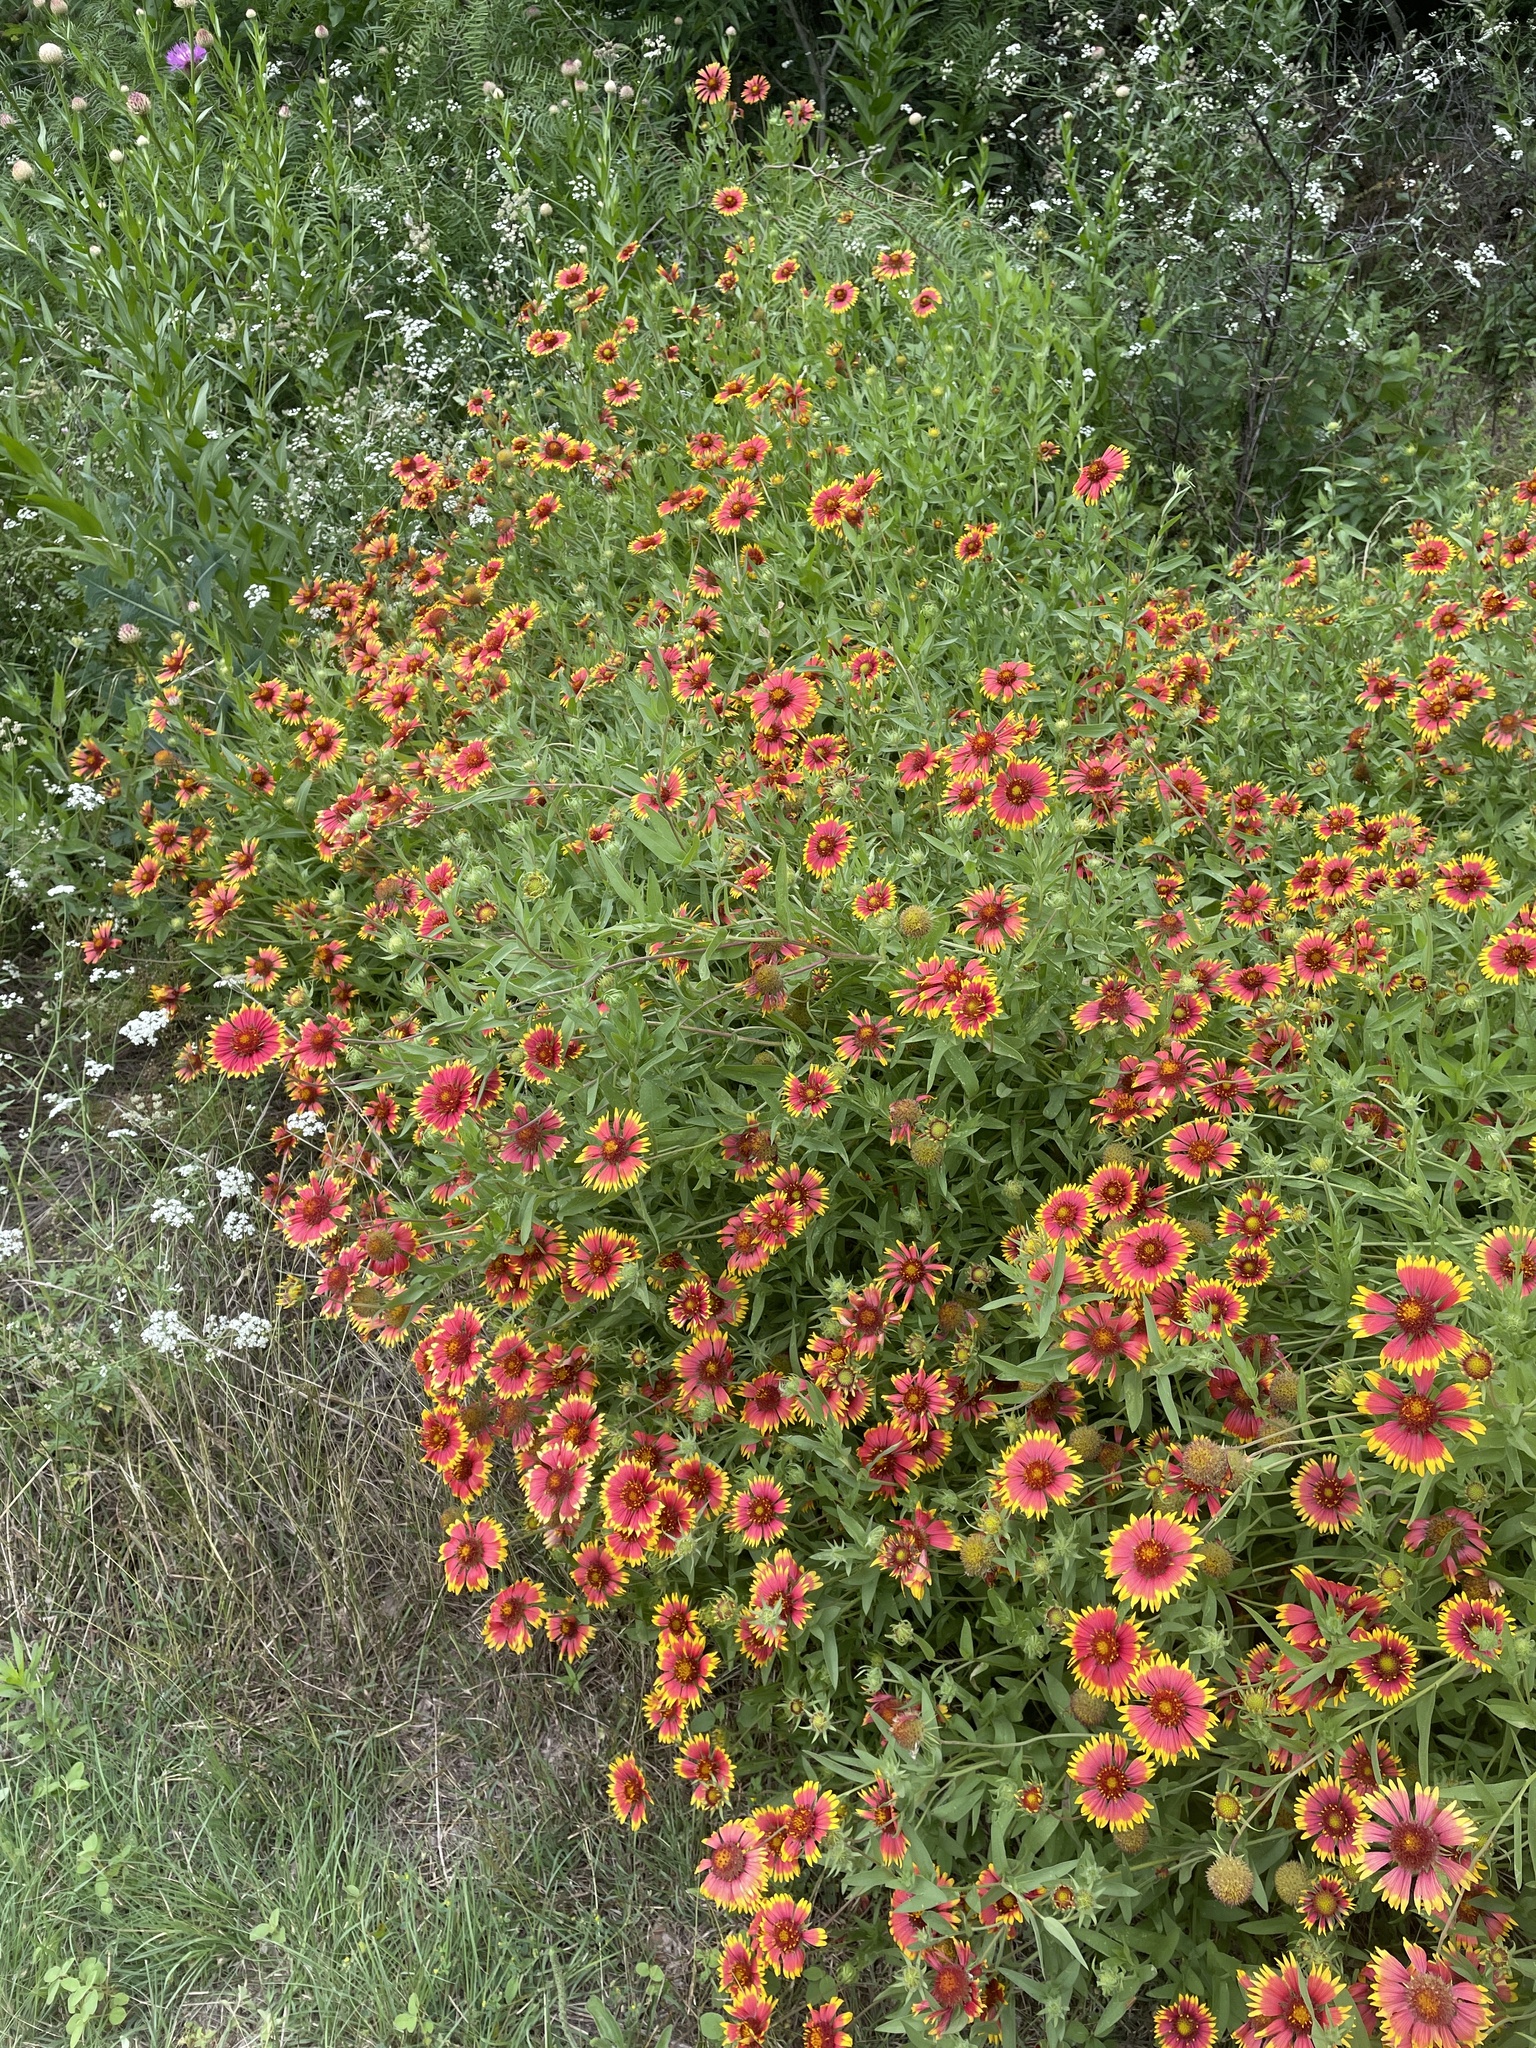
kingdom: Plantae
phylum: Tracheophyta
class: Magnoliopsida
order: Asterales
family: Asteraceae
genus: Gaillardia
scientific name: Gaillardia pulchella
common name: Firewheel
